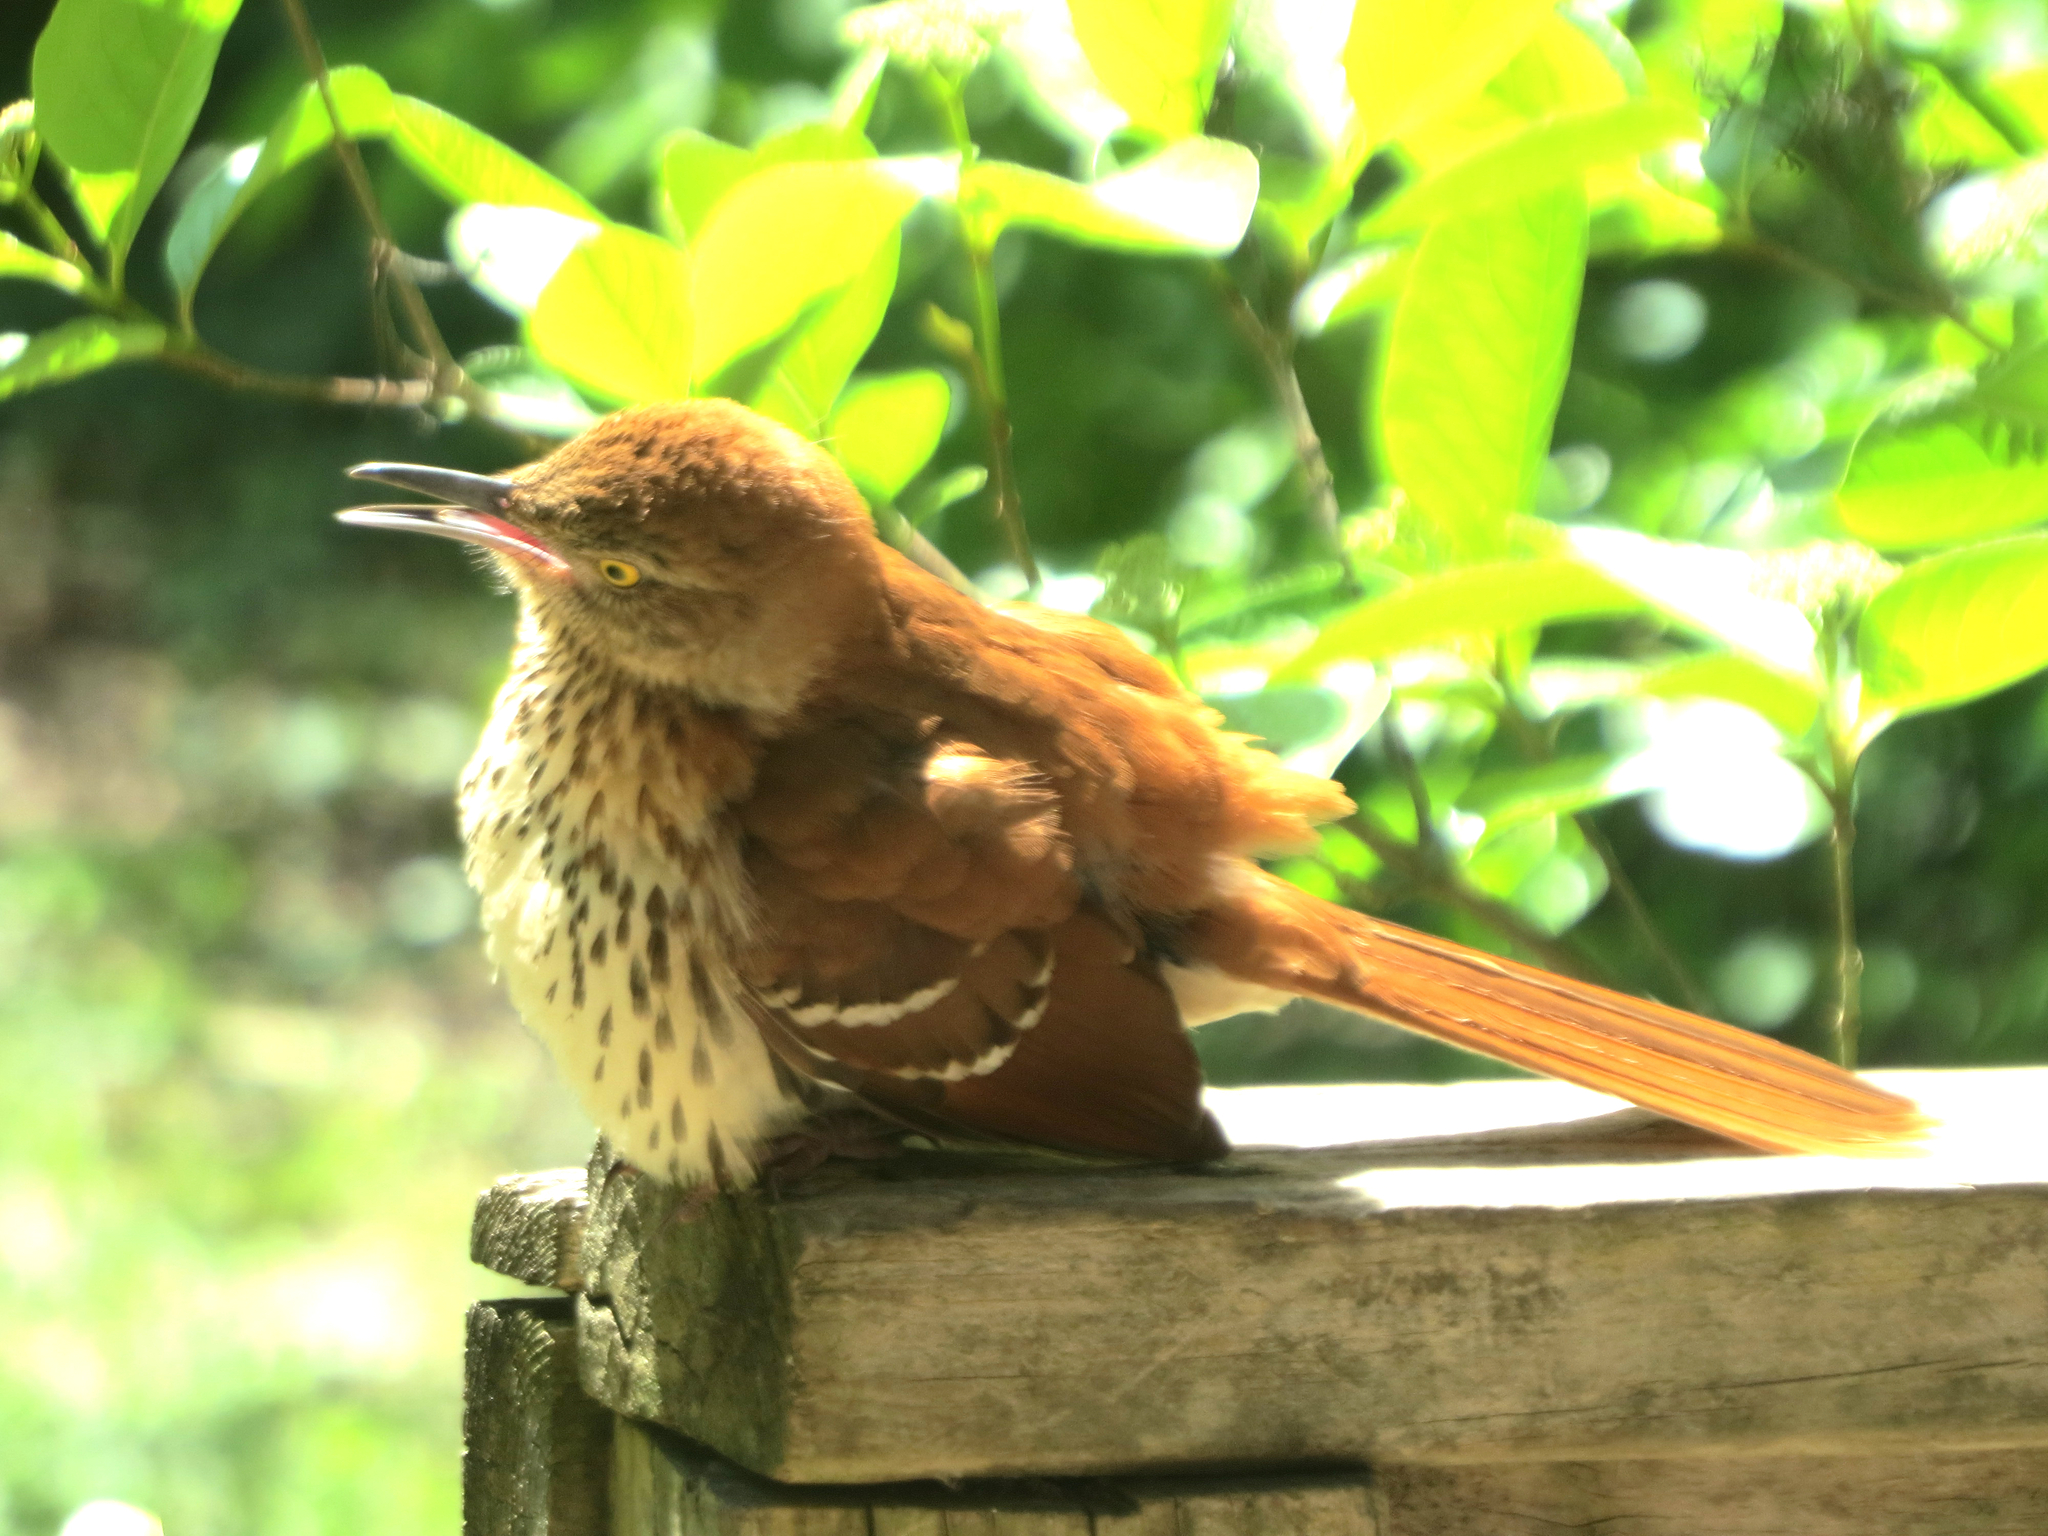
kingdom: Animalia
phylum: Chordata
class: Aves
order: Passeriformes
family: Mimidae
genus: Toxostoma
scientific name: Toxostoma rufum
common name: Brown thrasher
